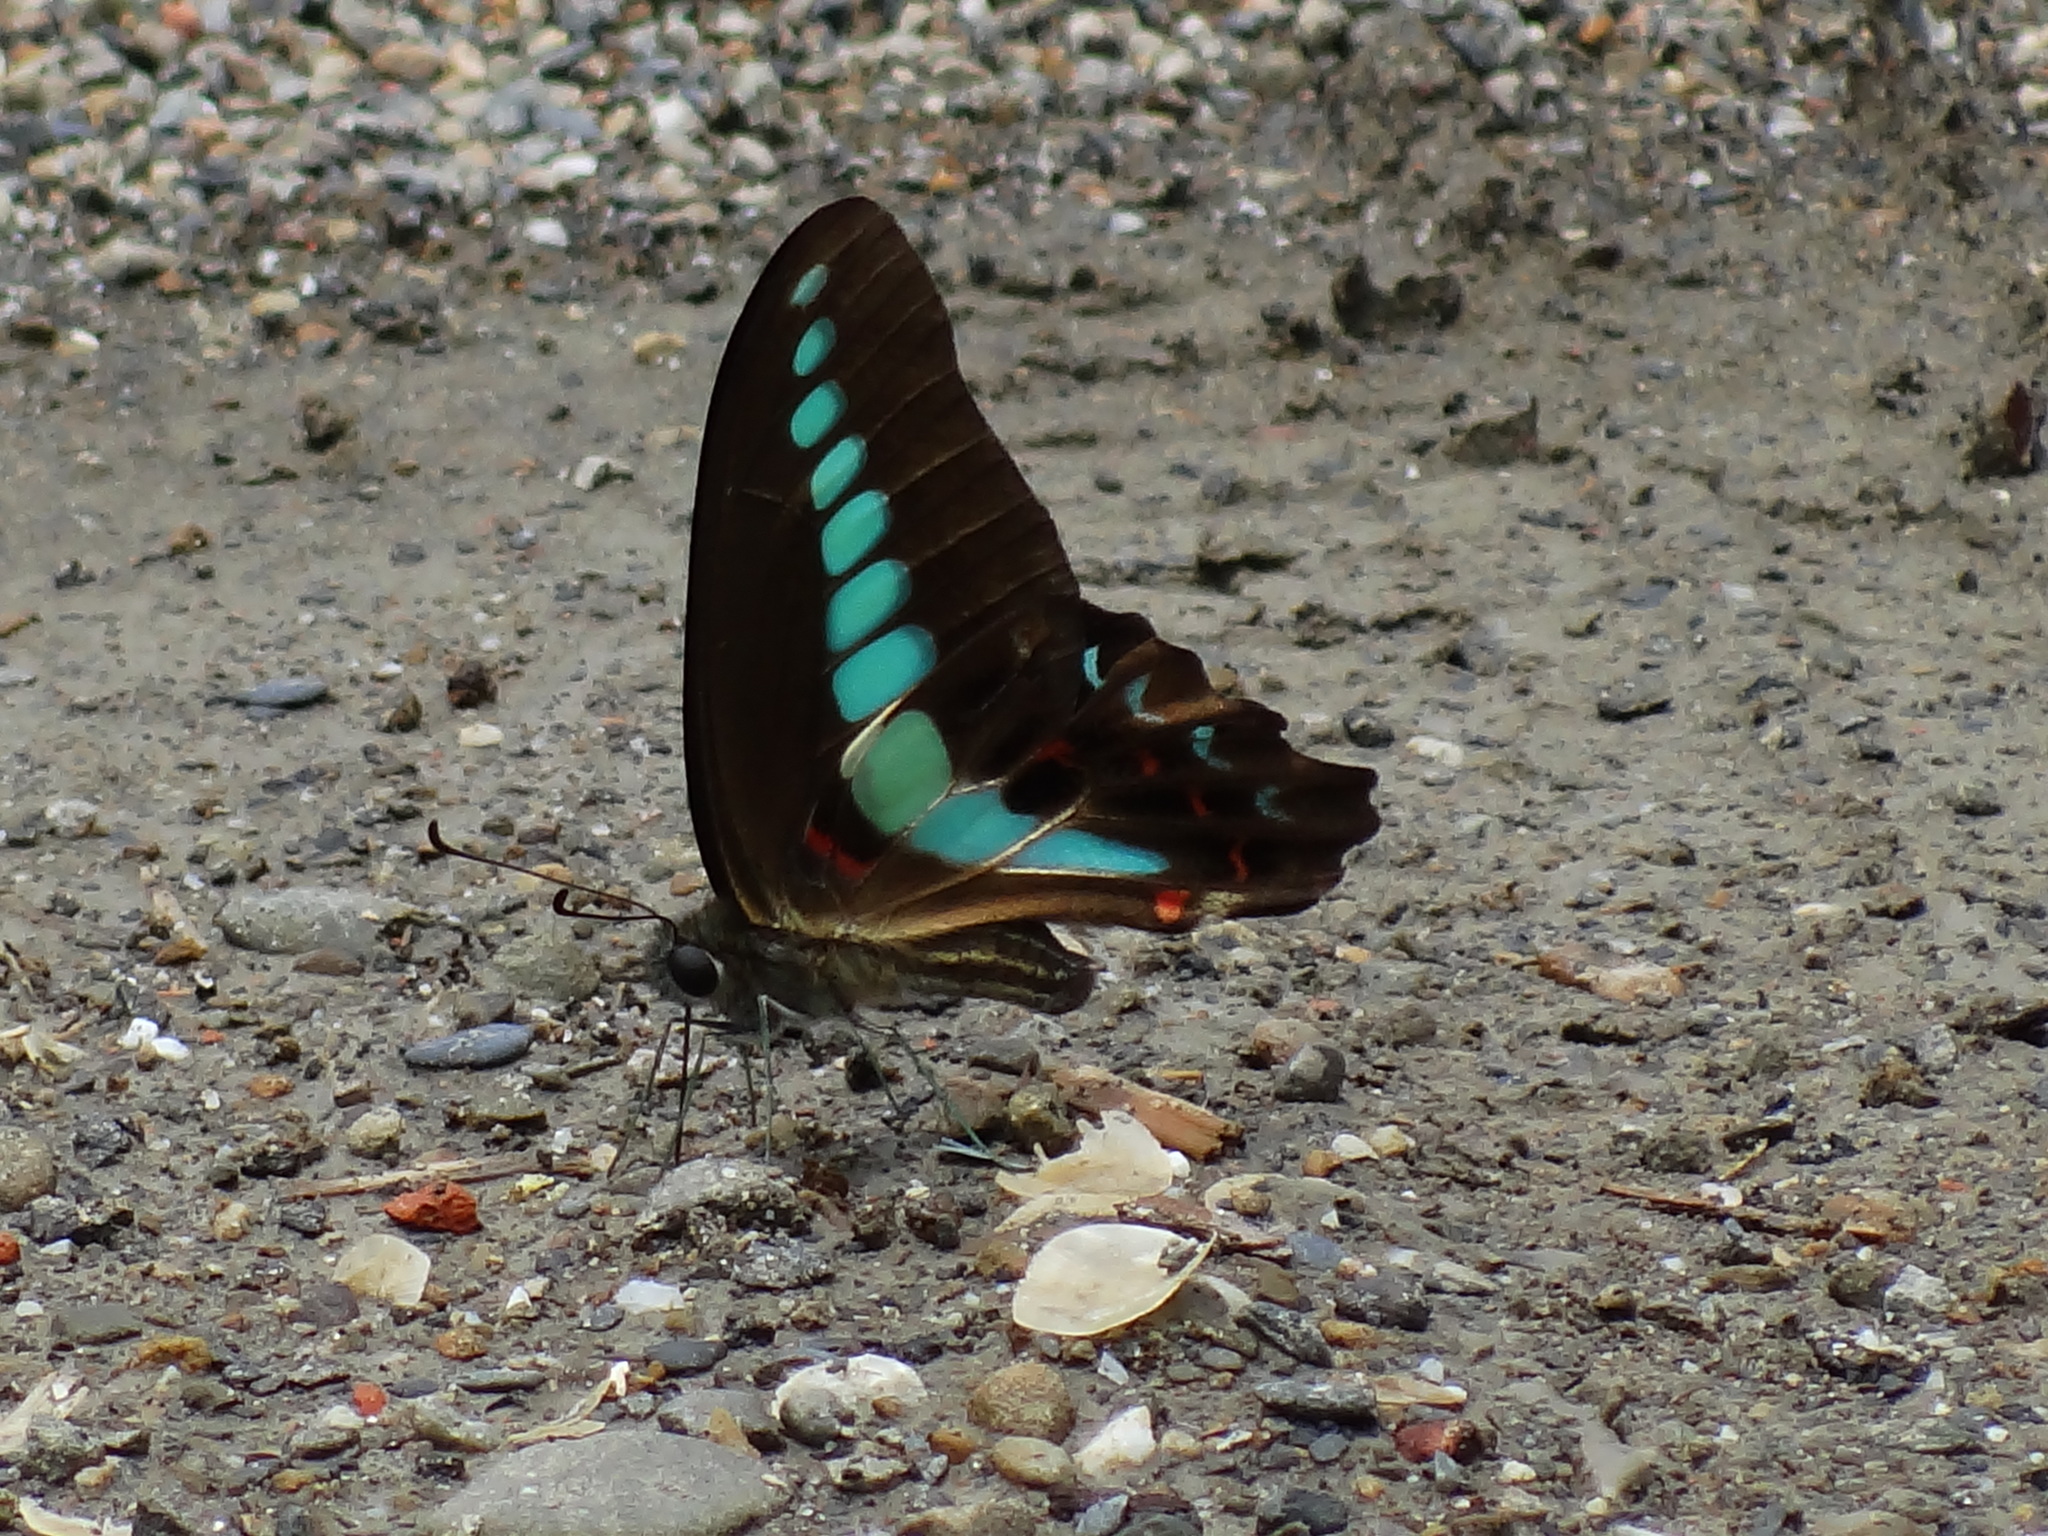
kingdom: Fungi
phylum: Ascomycota
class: Sordariomycetes
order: Microascales
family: Microascaceae
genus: Graphium
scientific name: Graphium sarpedon
